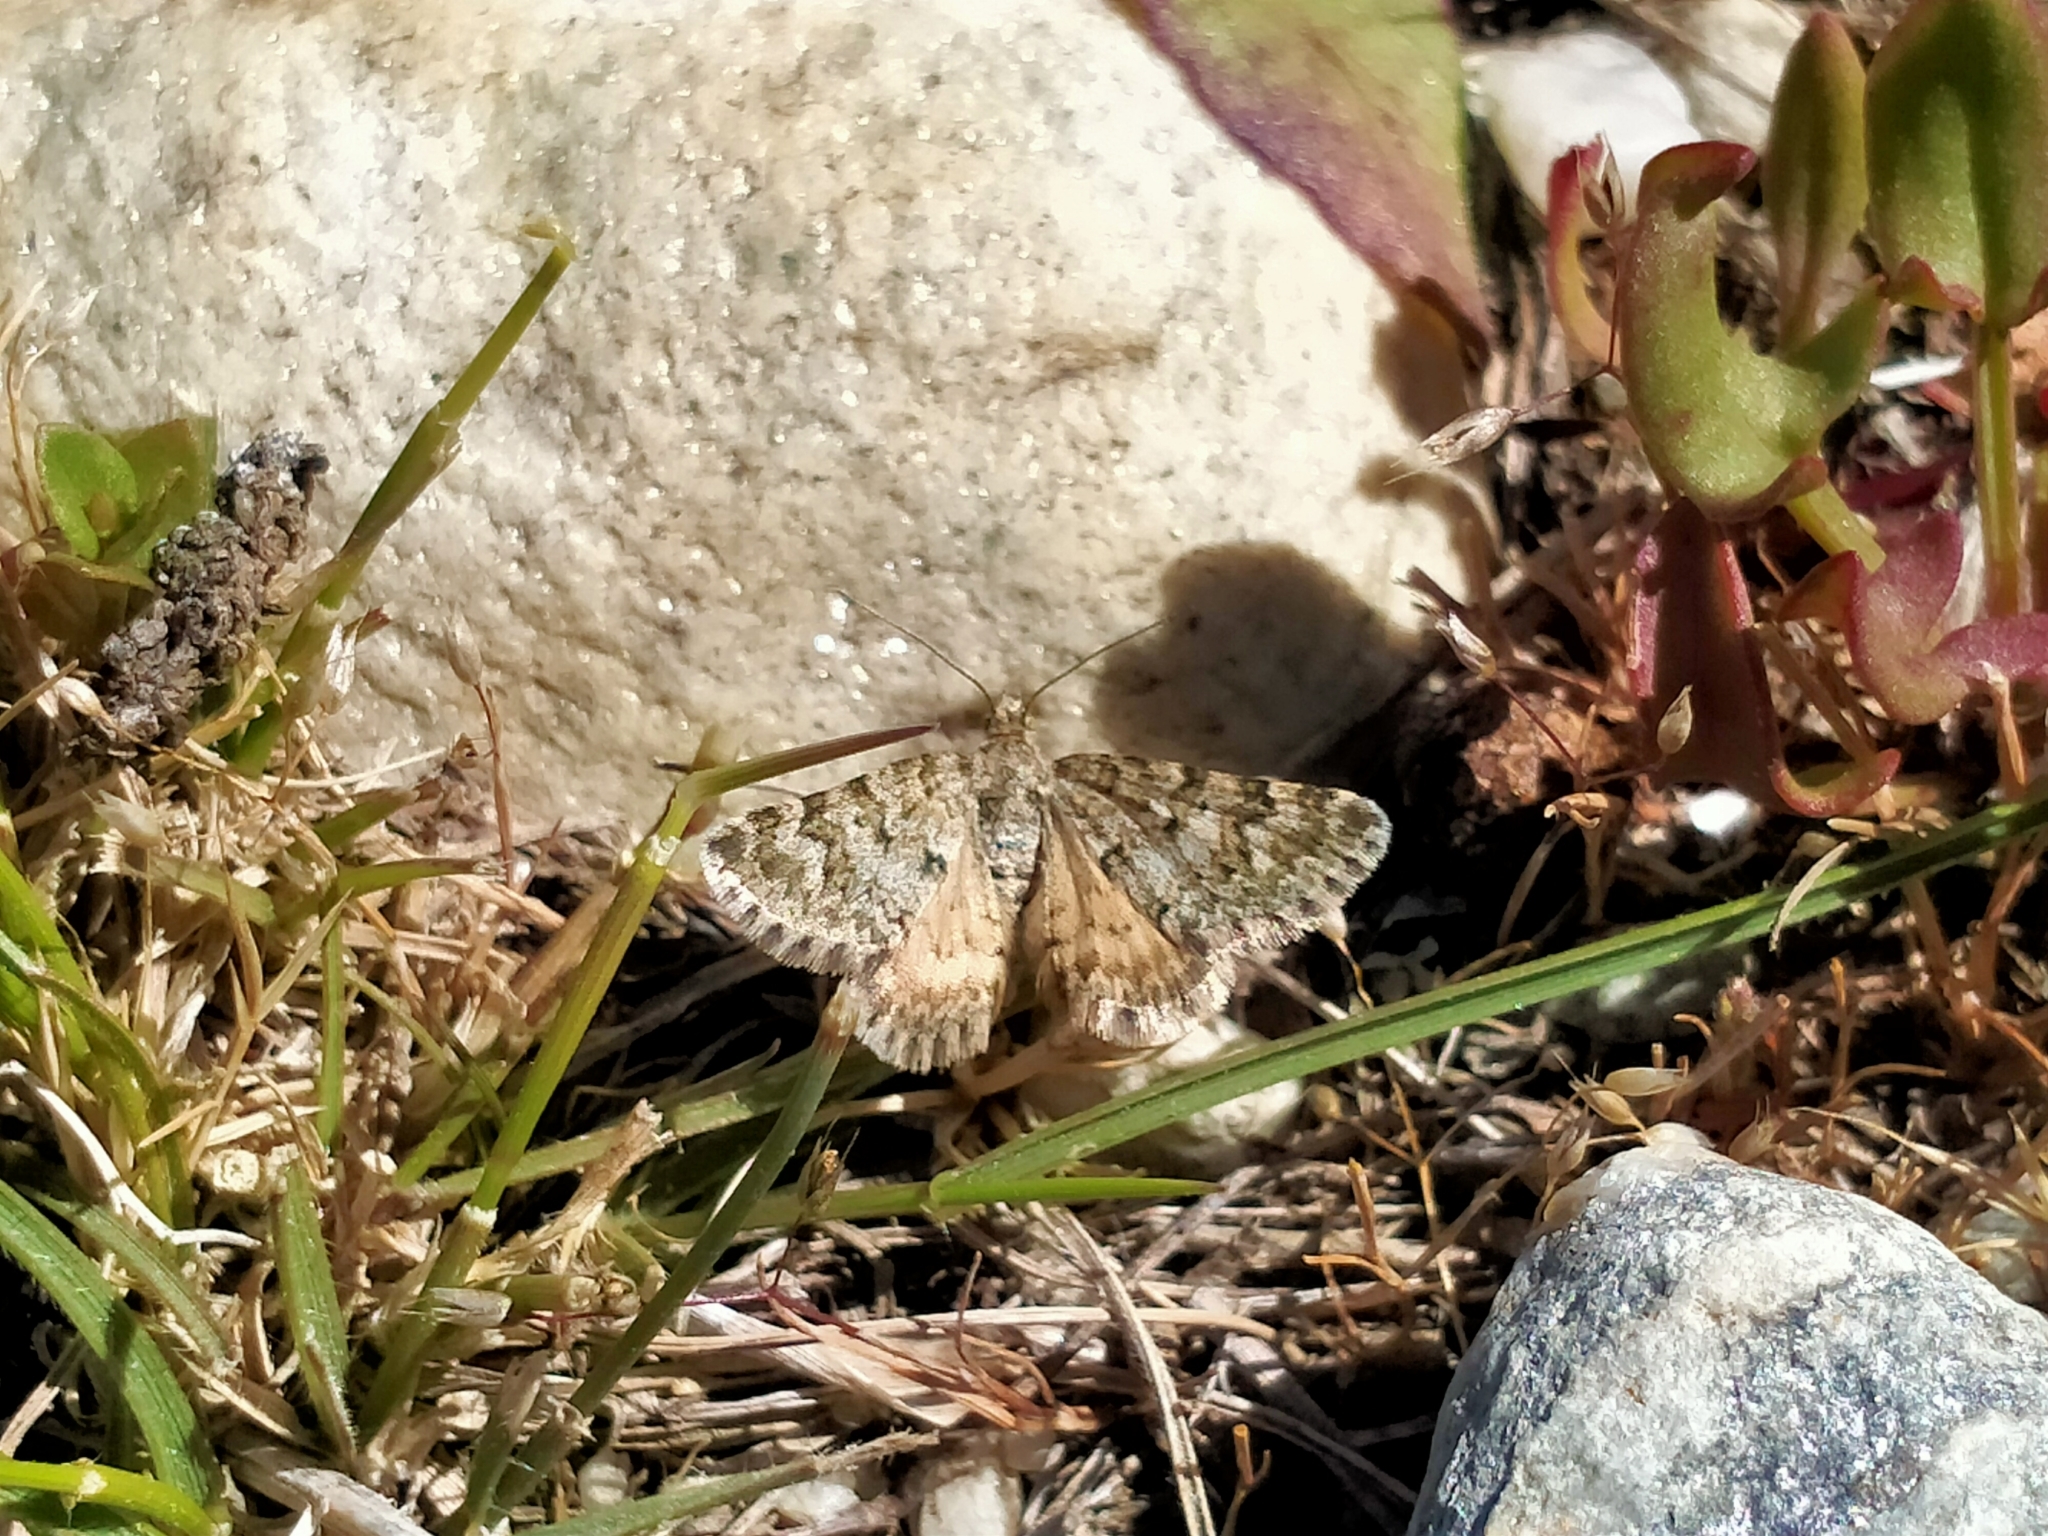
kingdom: Animalia
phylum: Arthropoda
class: Insecta
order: Lepidoptera
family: Geometridae
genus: Paranotoreas
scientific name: Paranotoreas fulva
